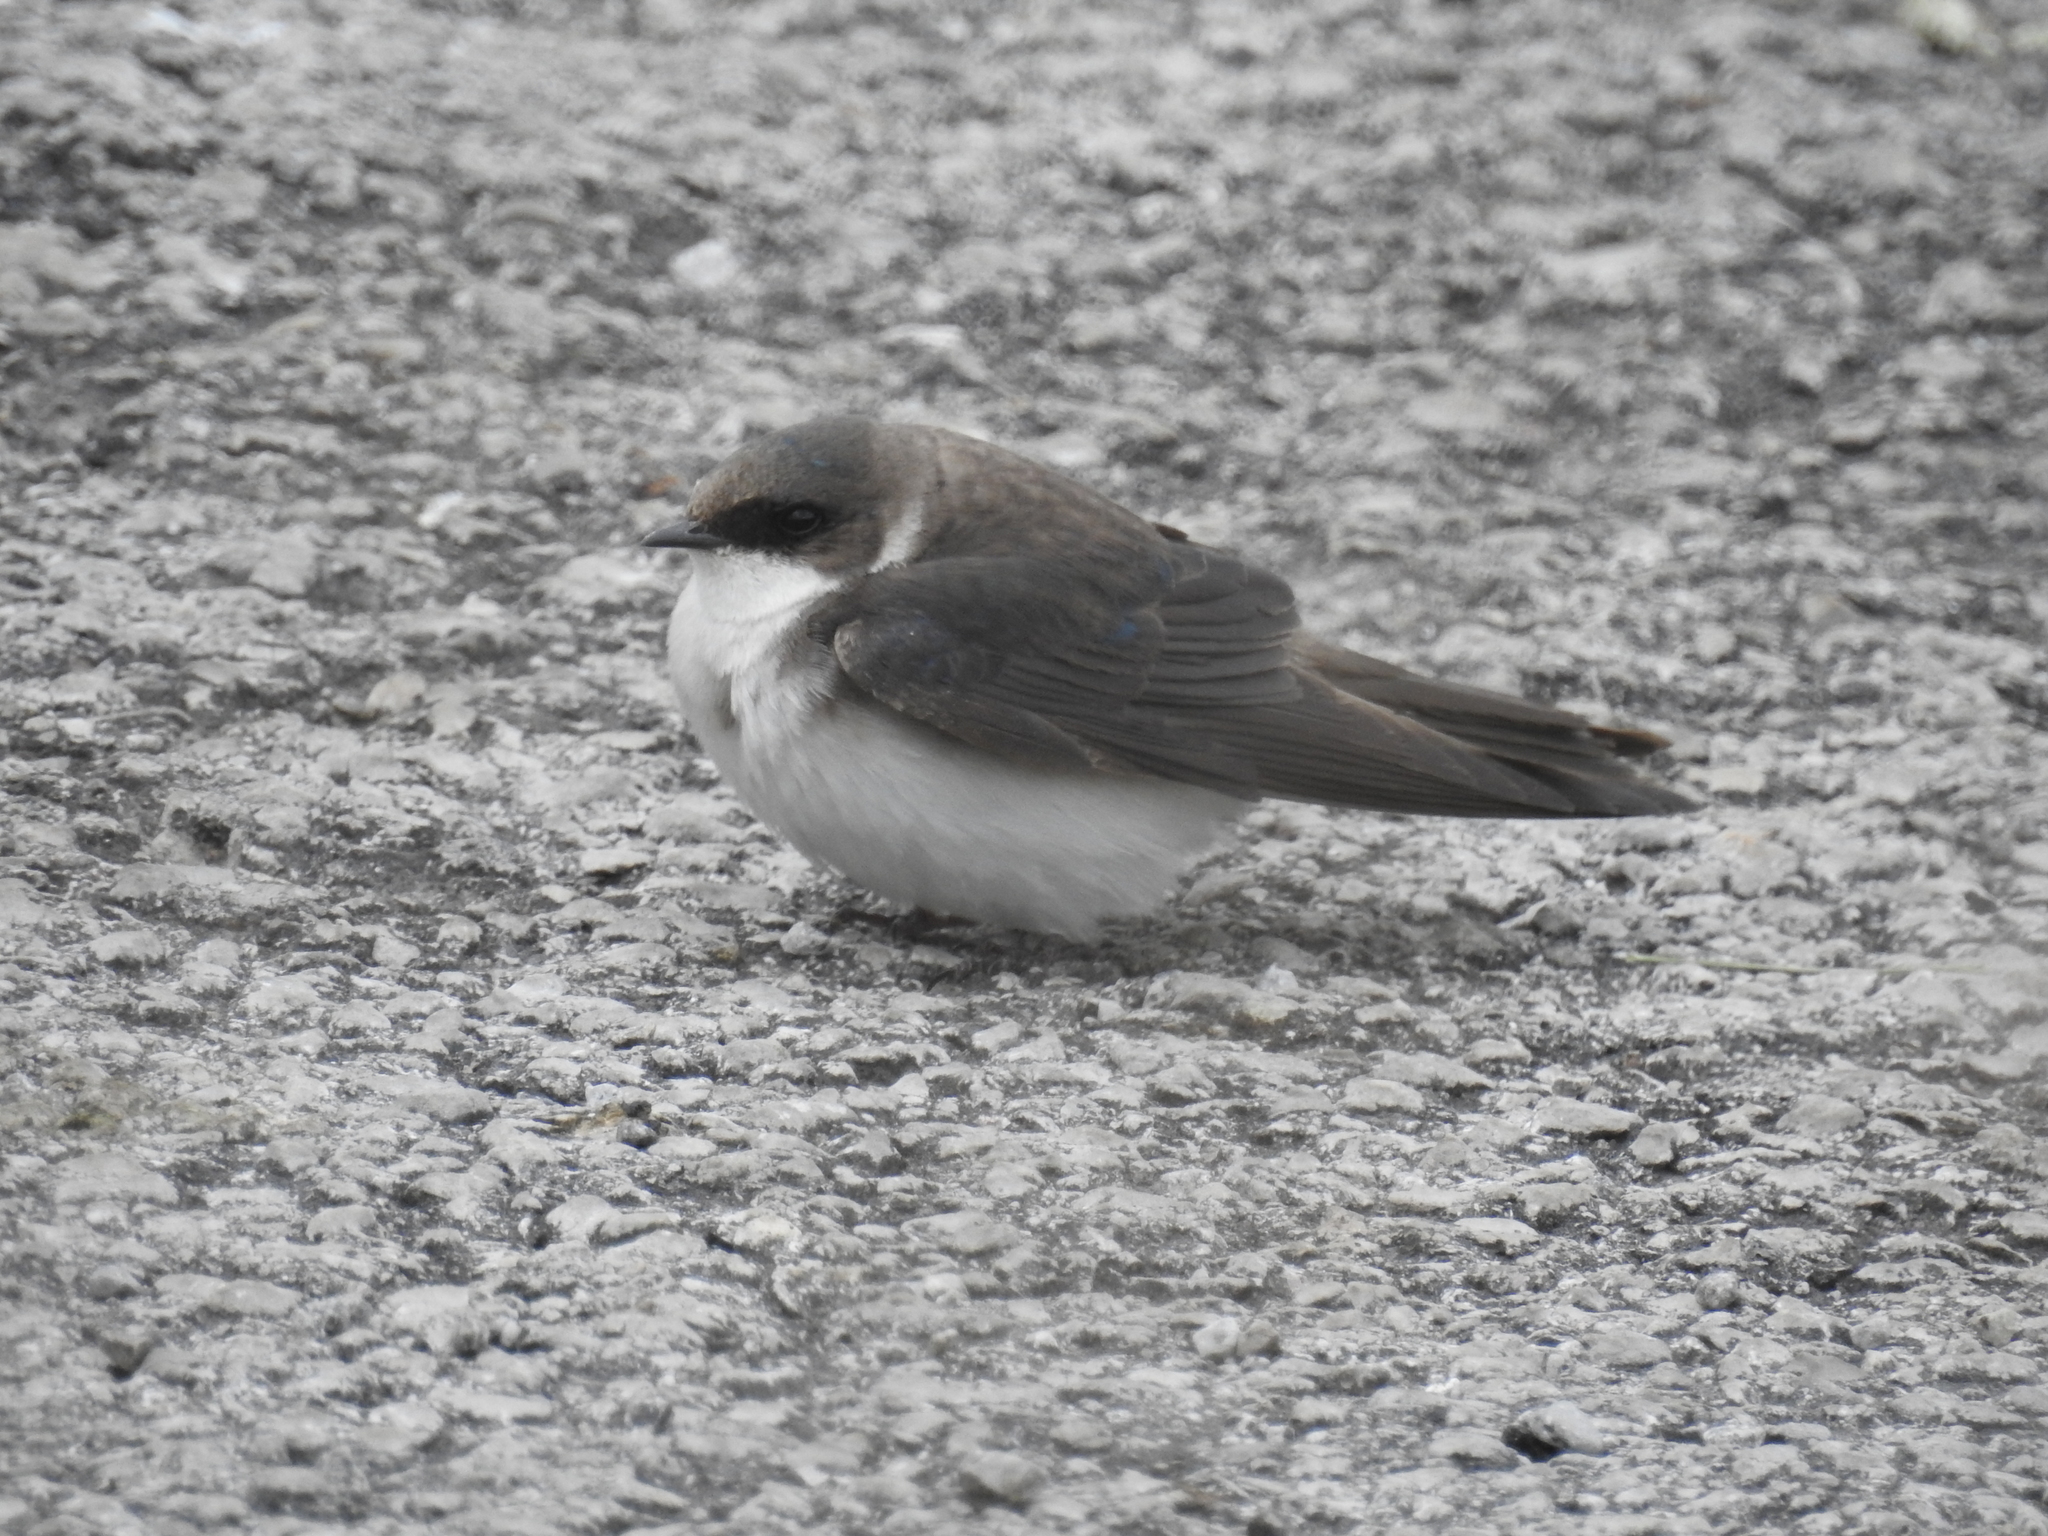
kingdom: Animalia
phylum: Chordata
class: Aves
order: Passeriformes
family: Hirundinidae
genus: Tachycineta
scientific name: Tachycineta bicolor
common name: Tree swallow
